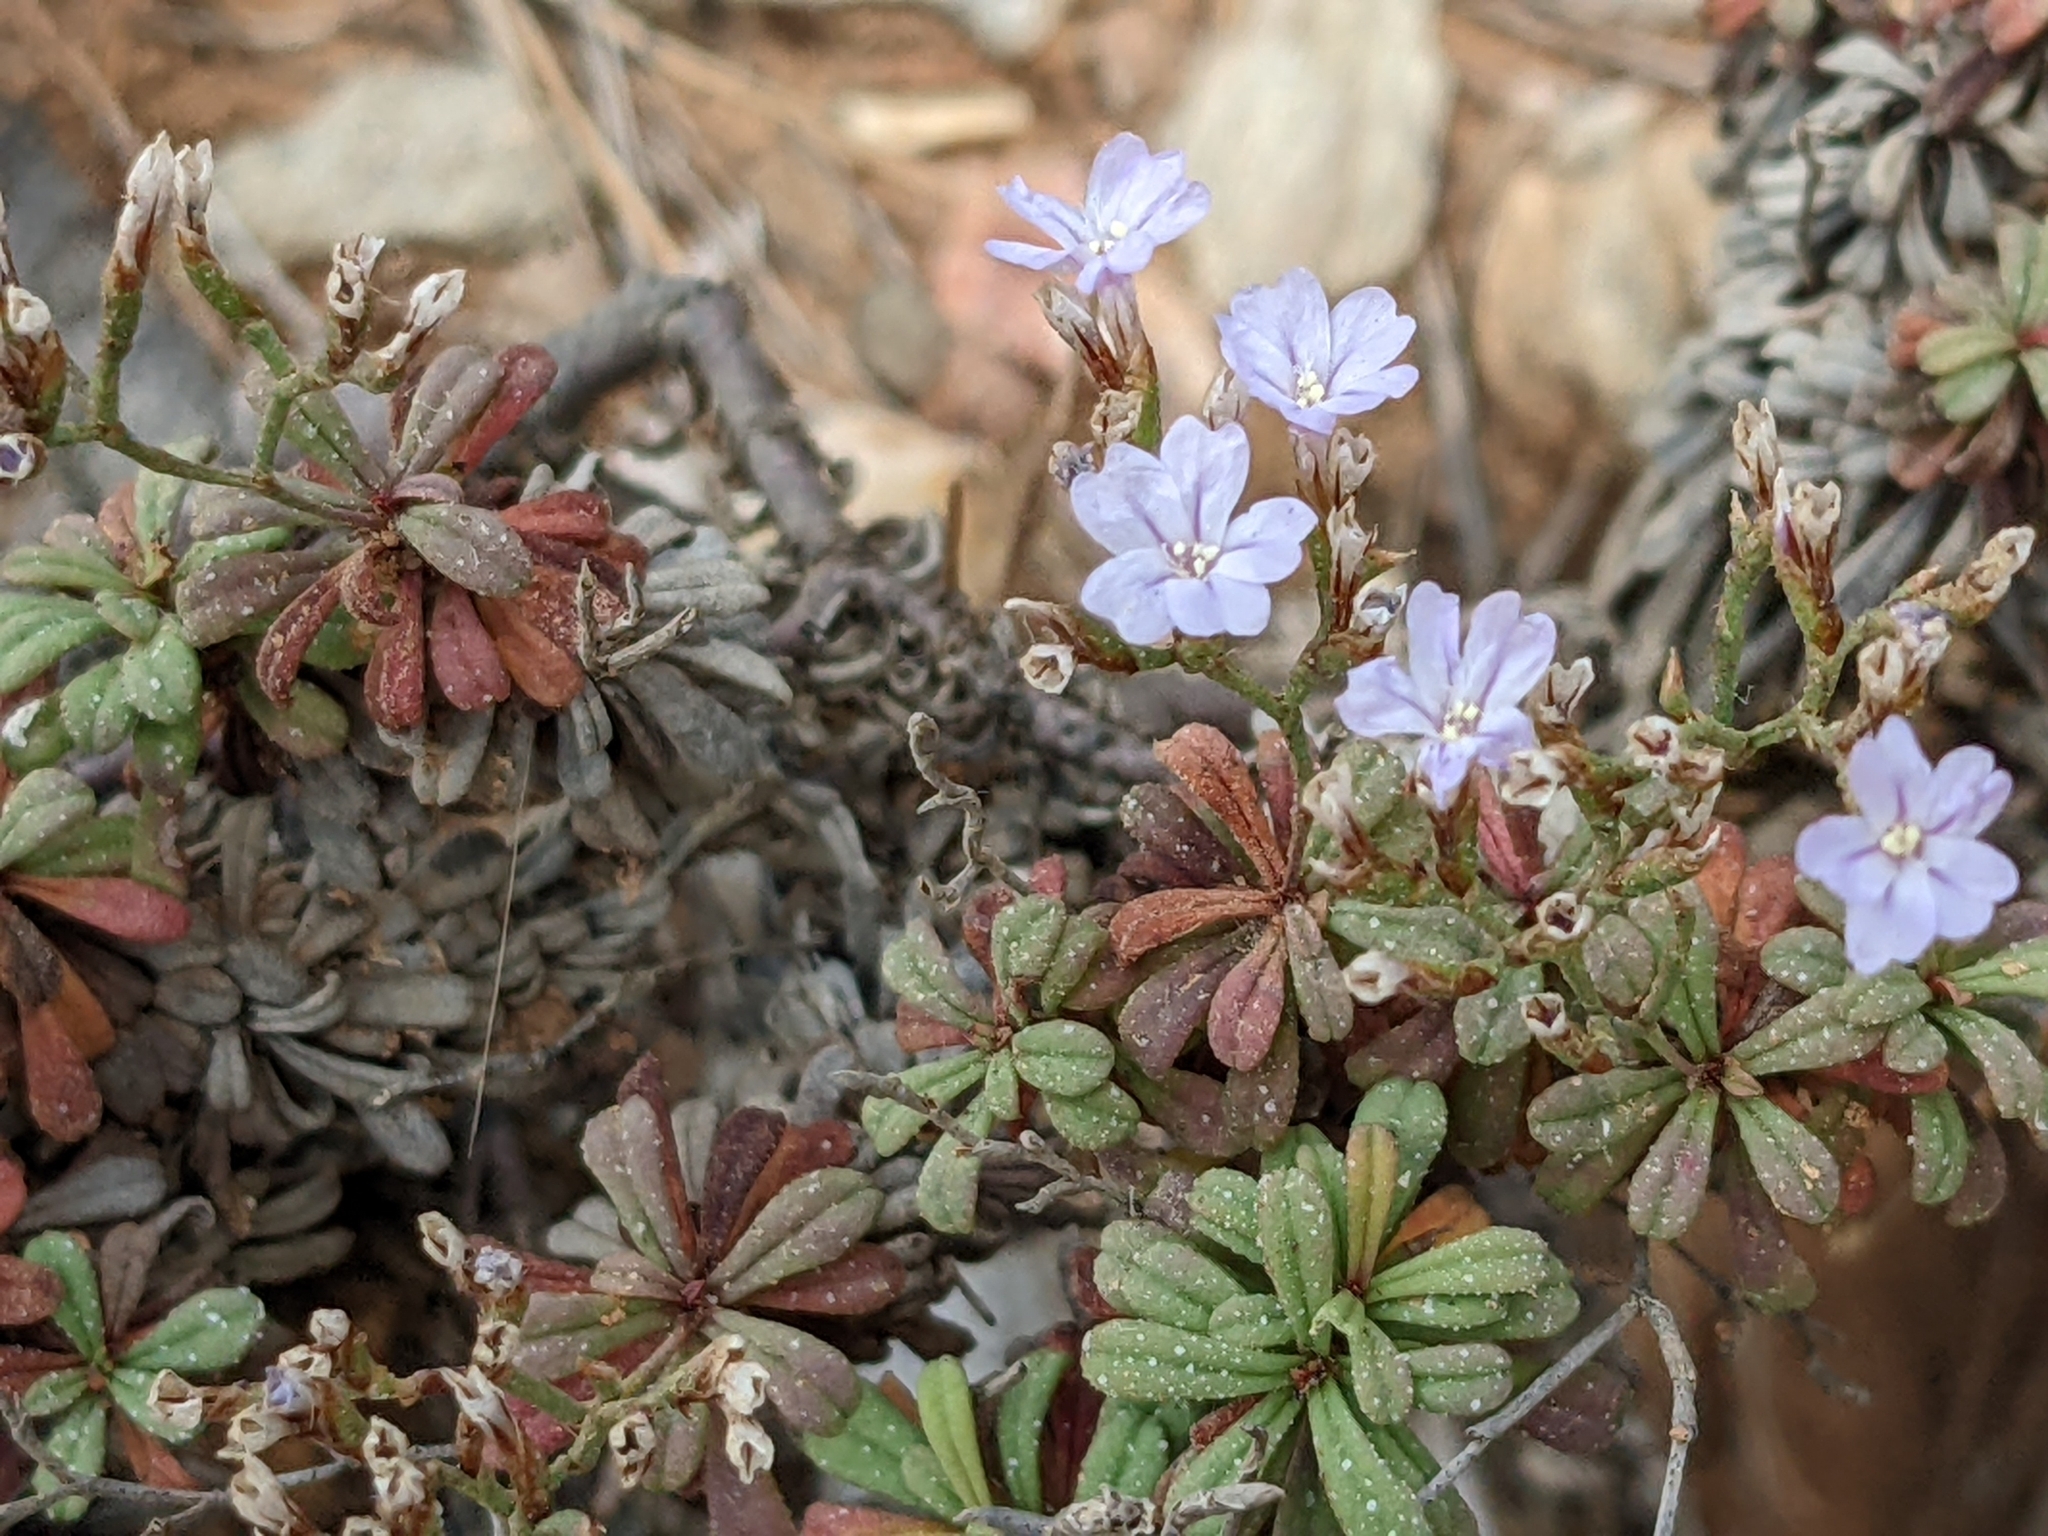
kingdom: Plantae
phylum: Tracheophyta
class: Magnoliopsida
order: Caryophyllales
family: Plumbaginaceae
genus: Limonium
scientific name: Limonium pseudominutum
